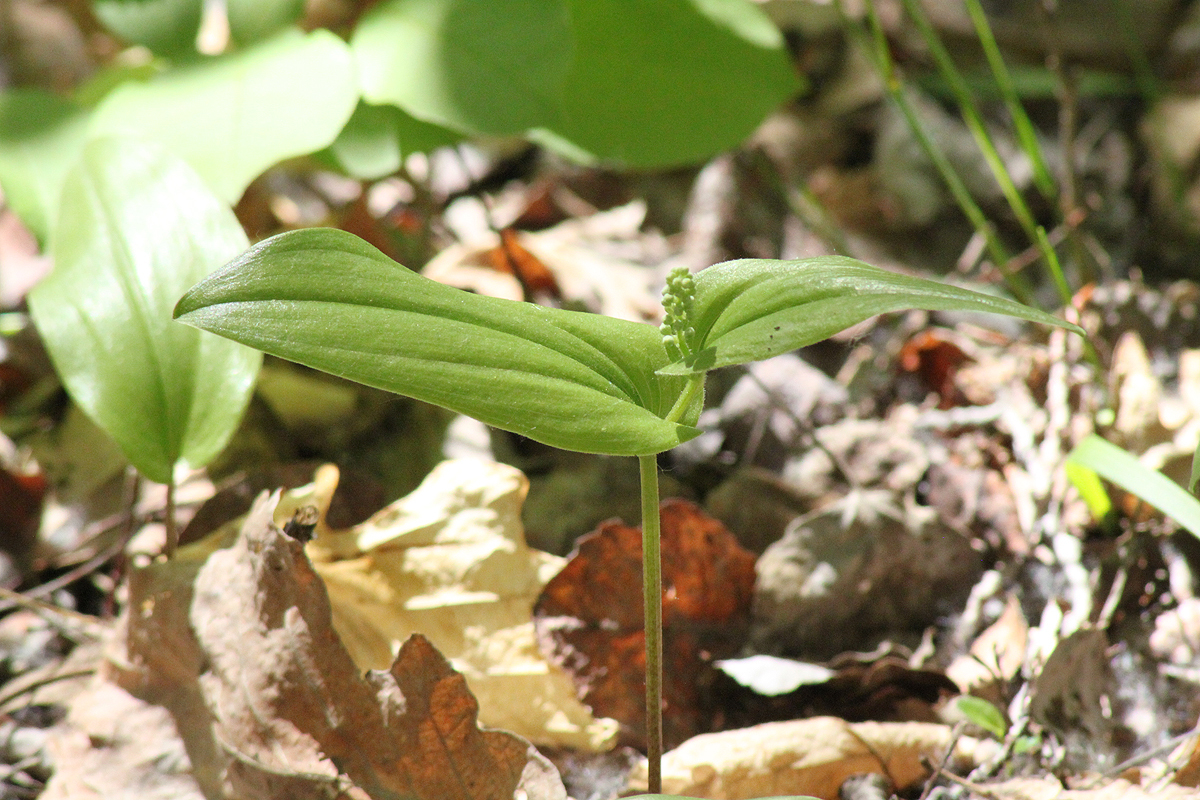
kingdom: Plantae
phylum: Tracheophyta
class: Liliopsida
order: Asparagales
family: Asparagaceae
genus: Maianthemum
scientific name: Maianthemum canadense
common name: False lily-of-the-valley
